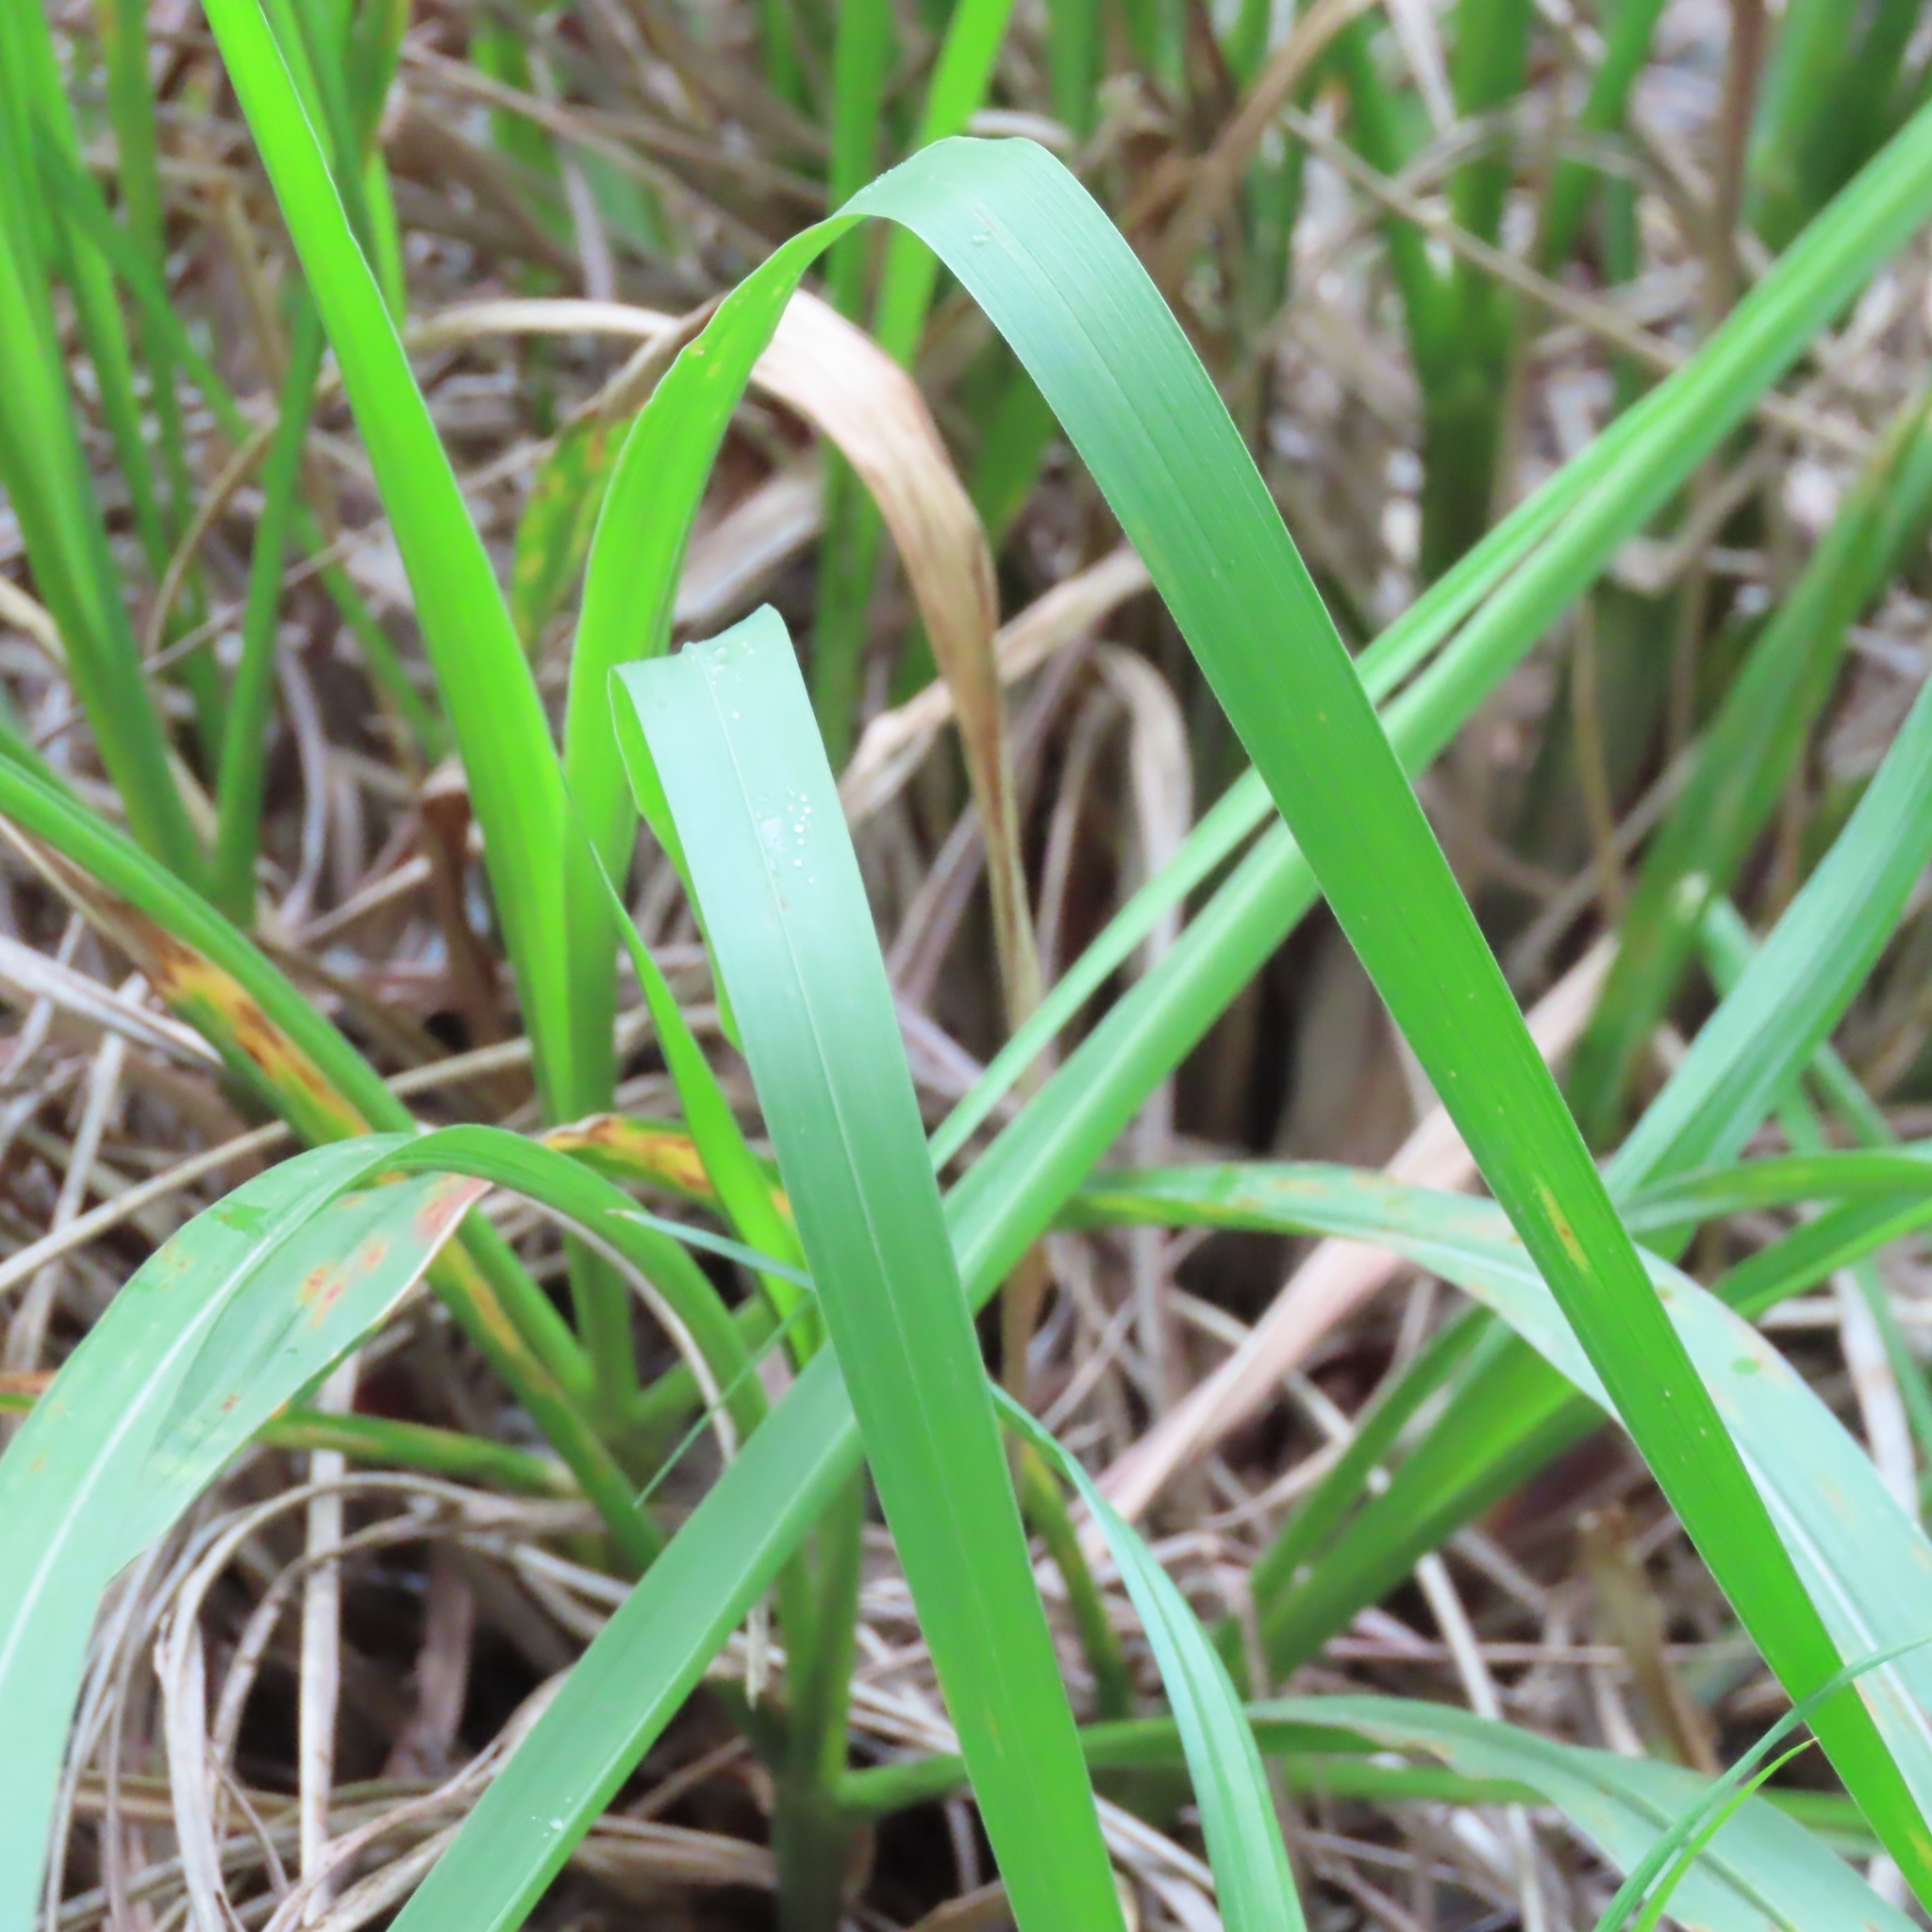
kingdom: Plantae
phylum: Tracheophyta
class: Liliopsida
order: Poales
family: Poaceae
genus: Tripsacum
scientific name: Tripsacum dactyloides
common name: Buffalo-grass
